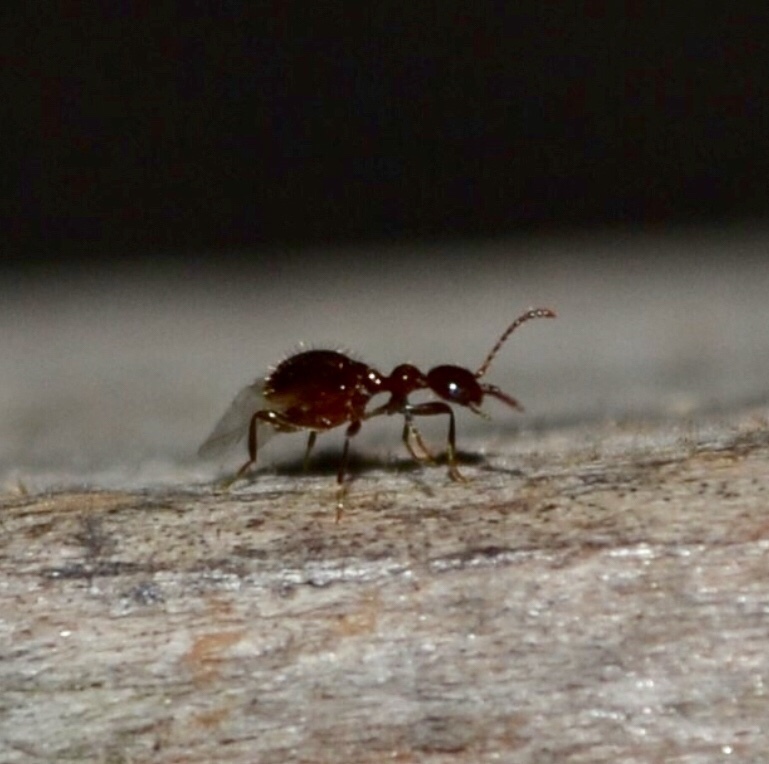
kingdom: Animalia
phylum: Arthropoda
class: Insecta
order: Coleoptera
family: Anthicidae
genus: Acanthinus
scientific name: Acanthinus
